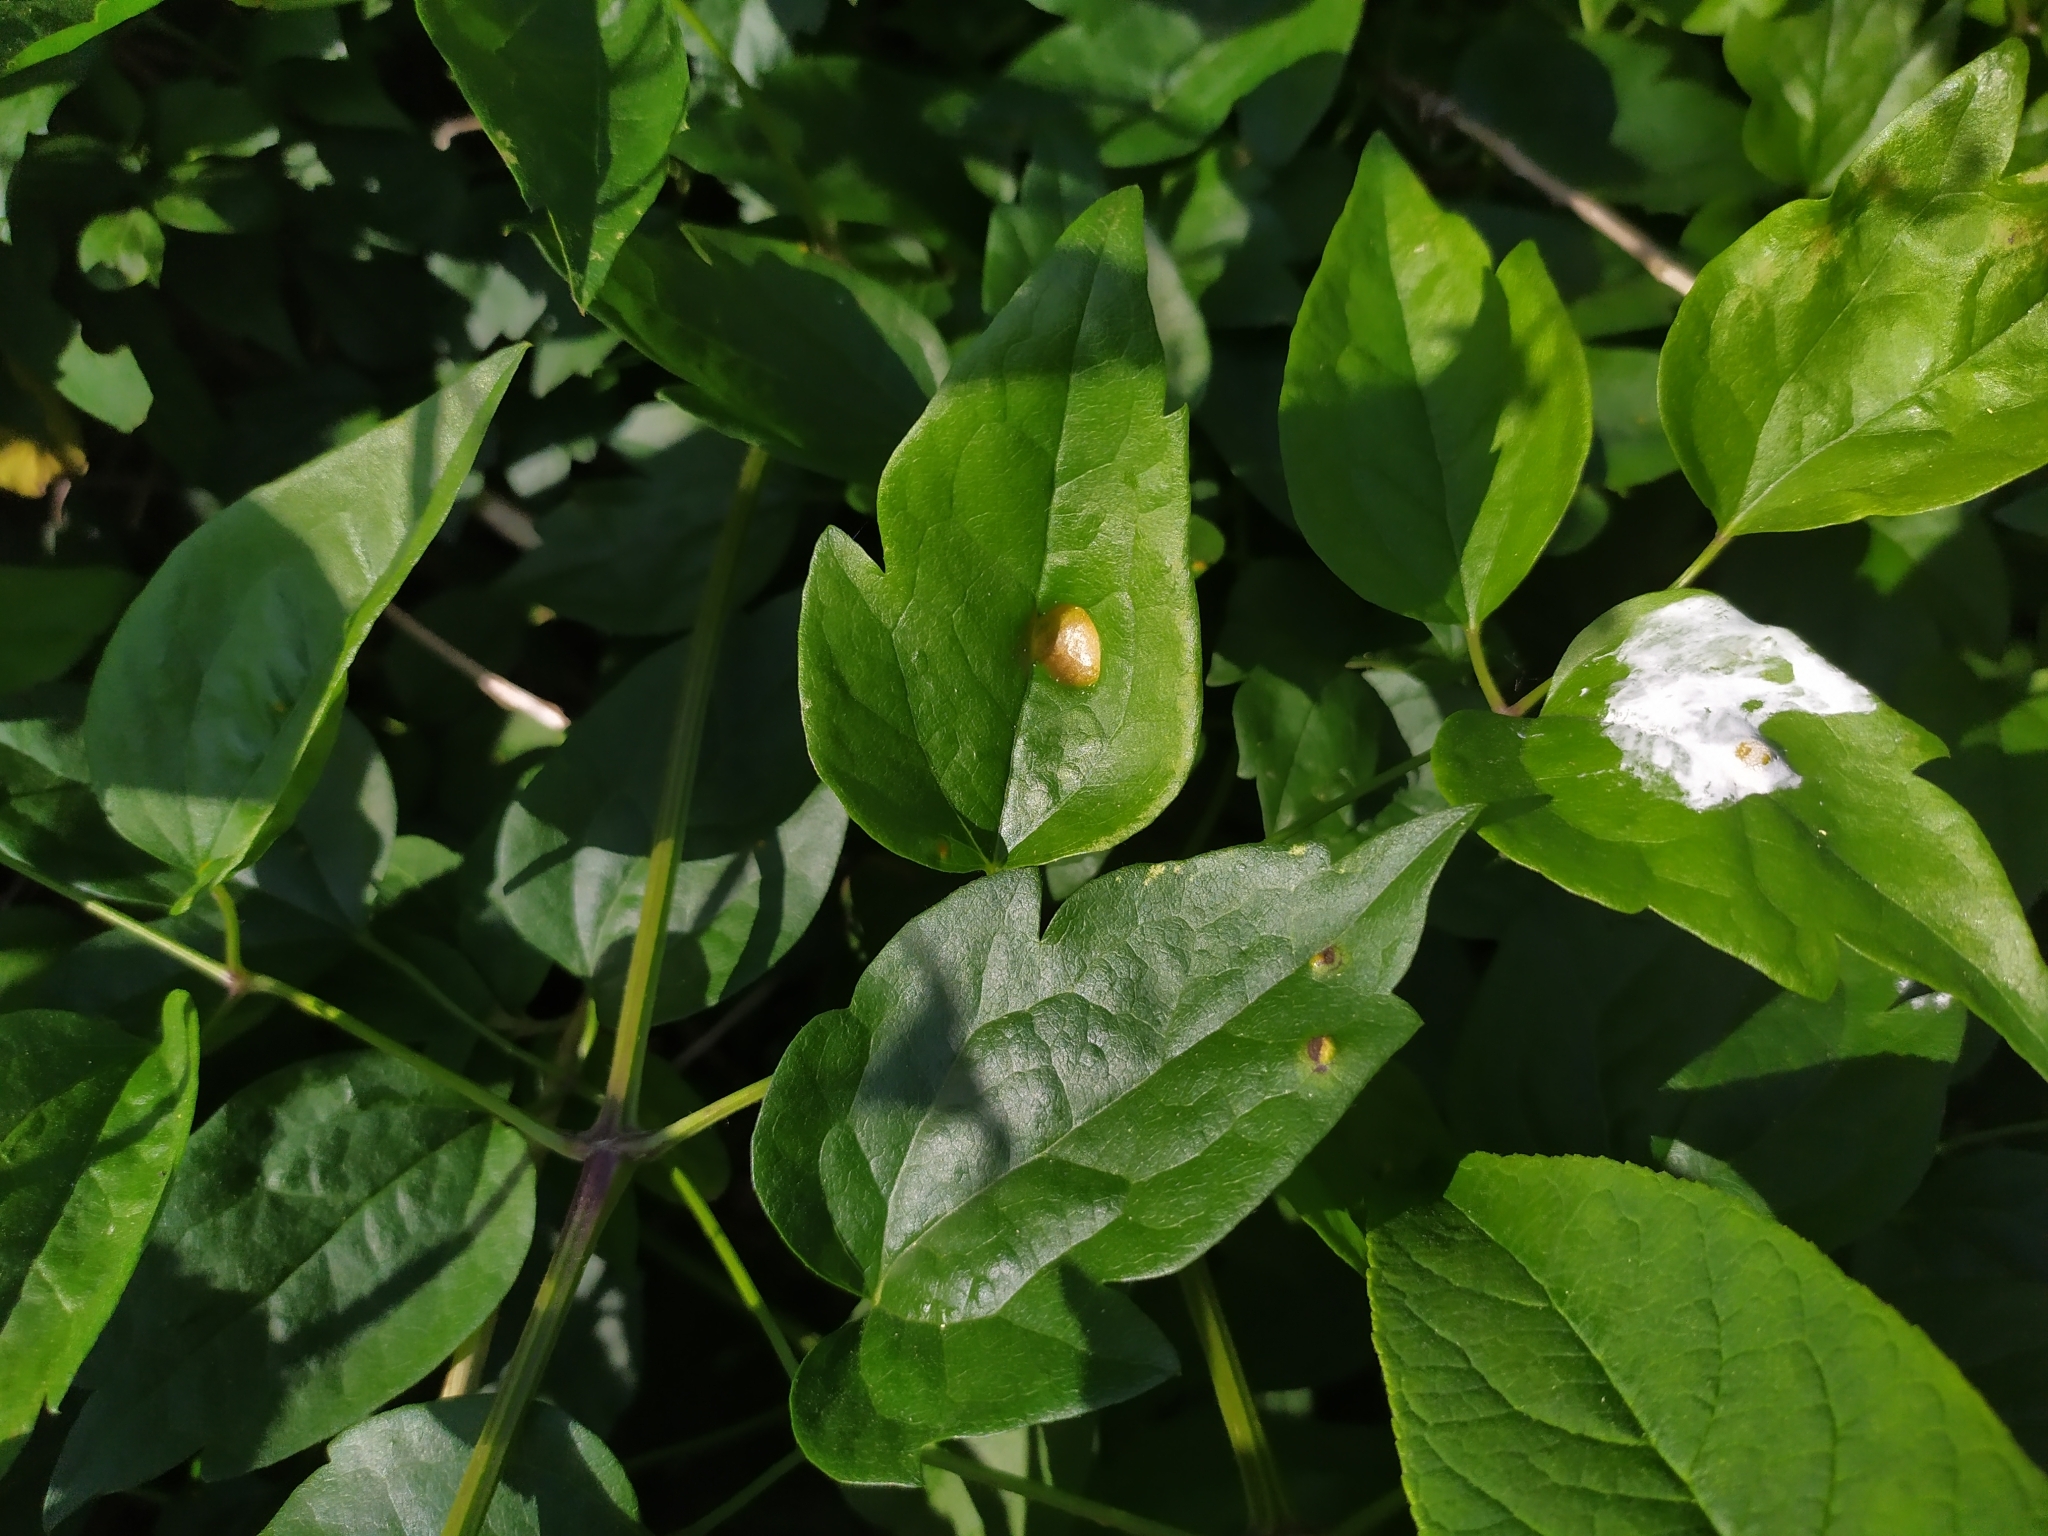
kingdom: Fungi
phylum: Basidiomycota
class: Pucciniomycetes
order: Pucciniales
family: Pucciniaceae
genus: Puccinia
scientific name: Puccinia clematidis
